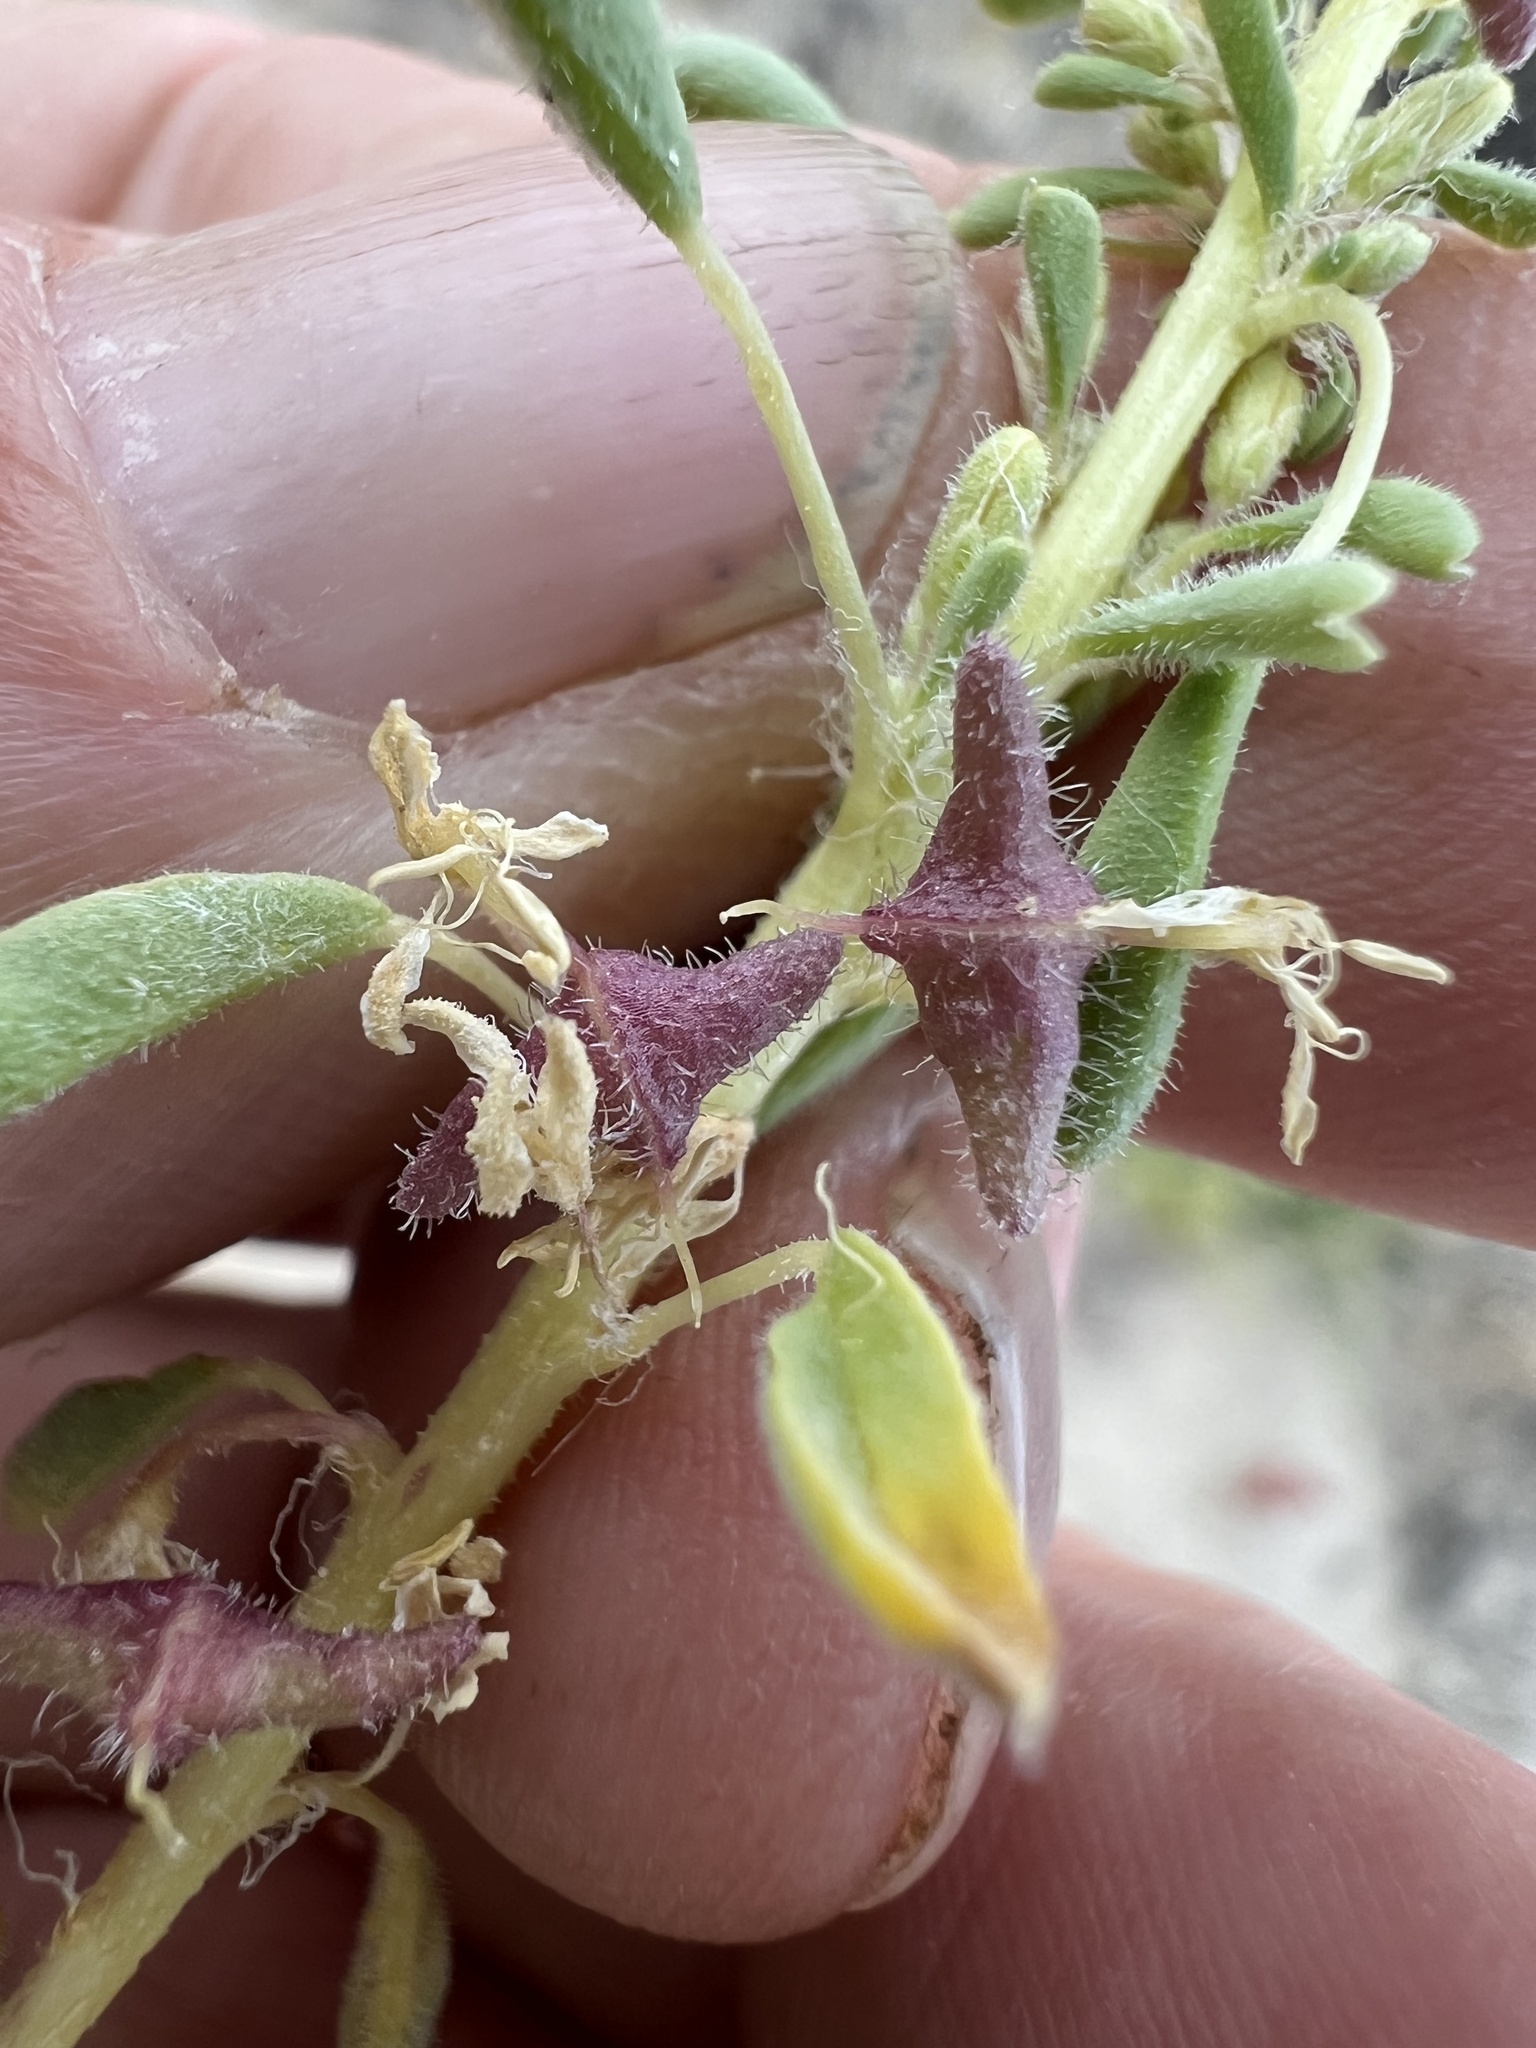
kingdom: Plantae
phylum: Tracheophyta
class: Magnoliopsida
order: Brassicales
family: Cleomaceae
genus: Cleomella
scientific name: Cleomella obtusifolia
